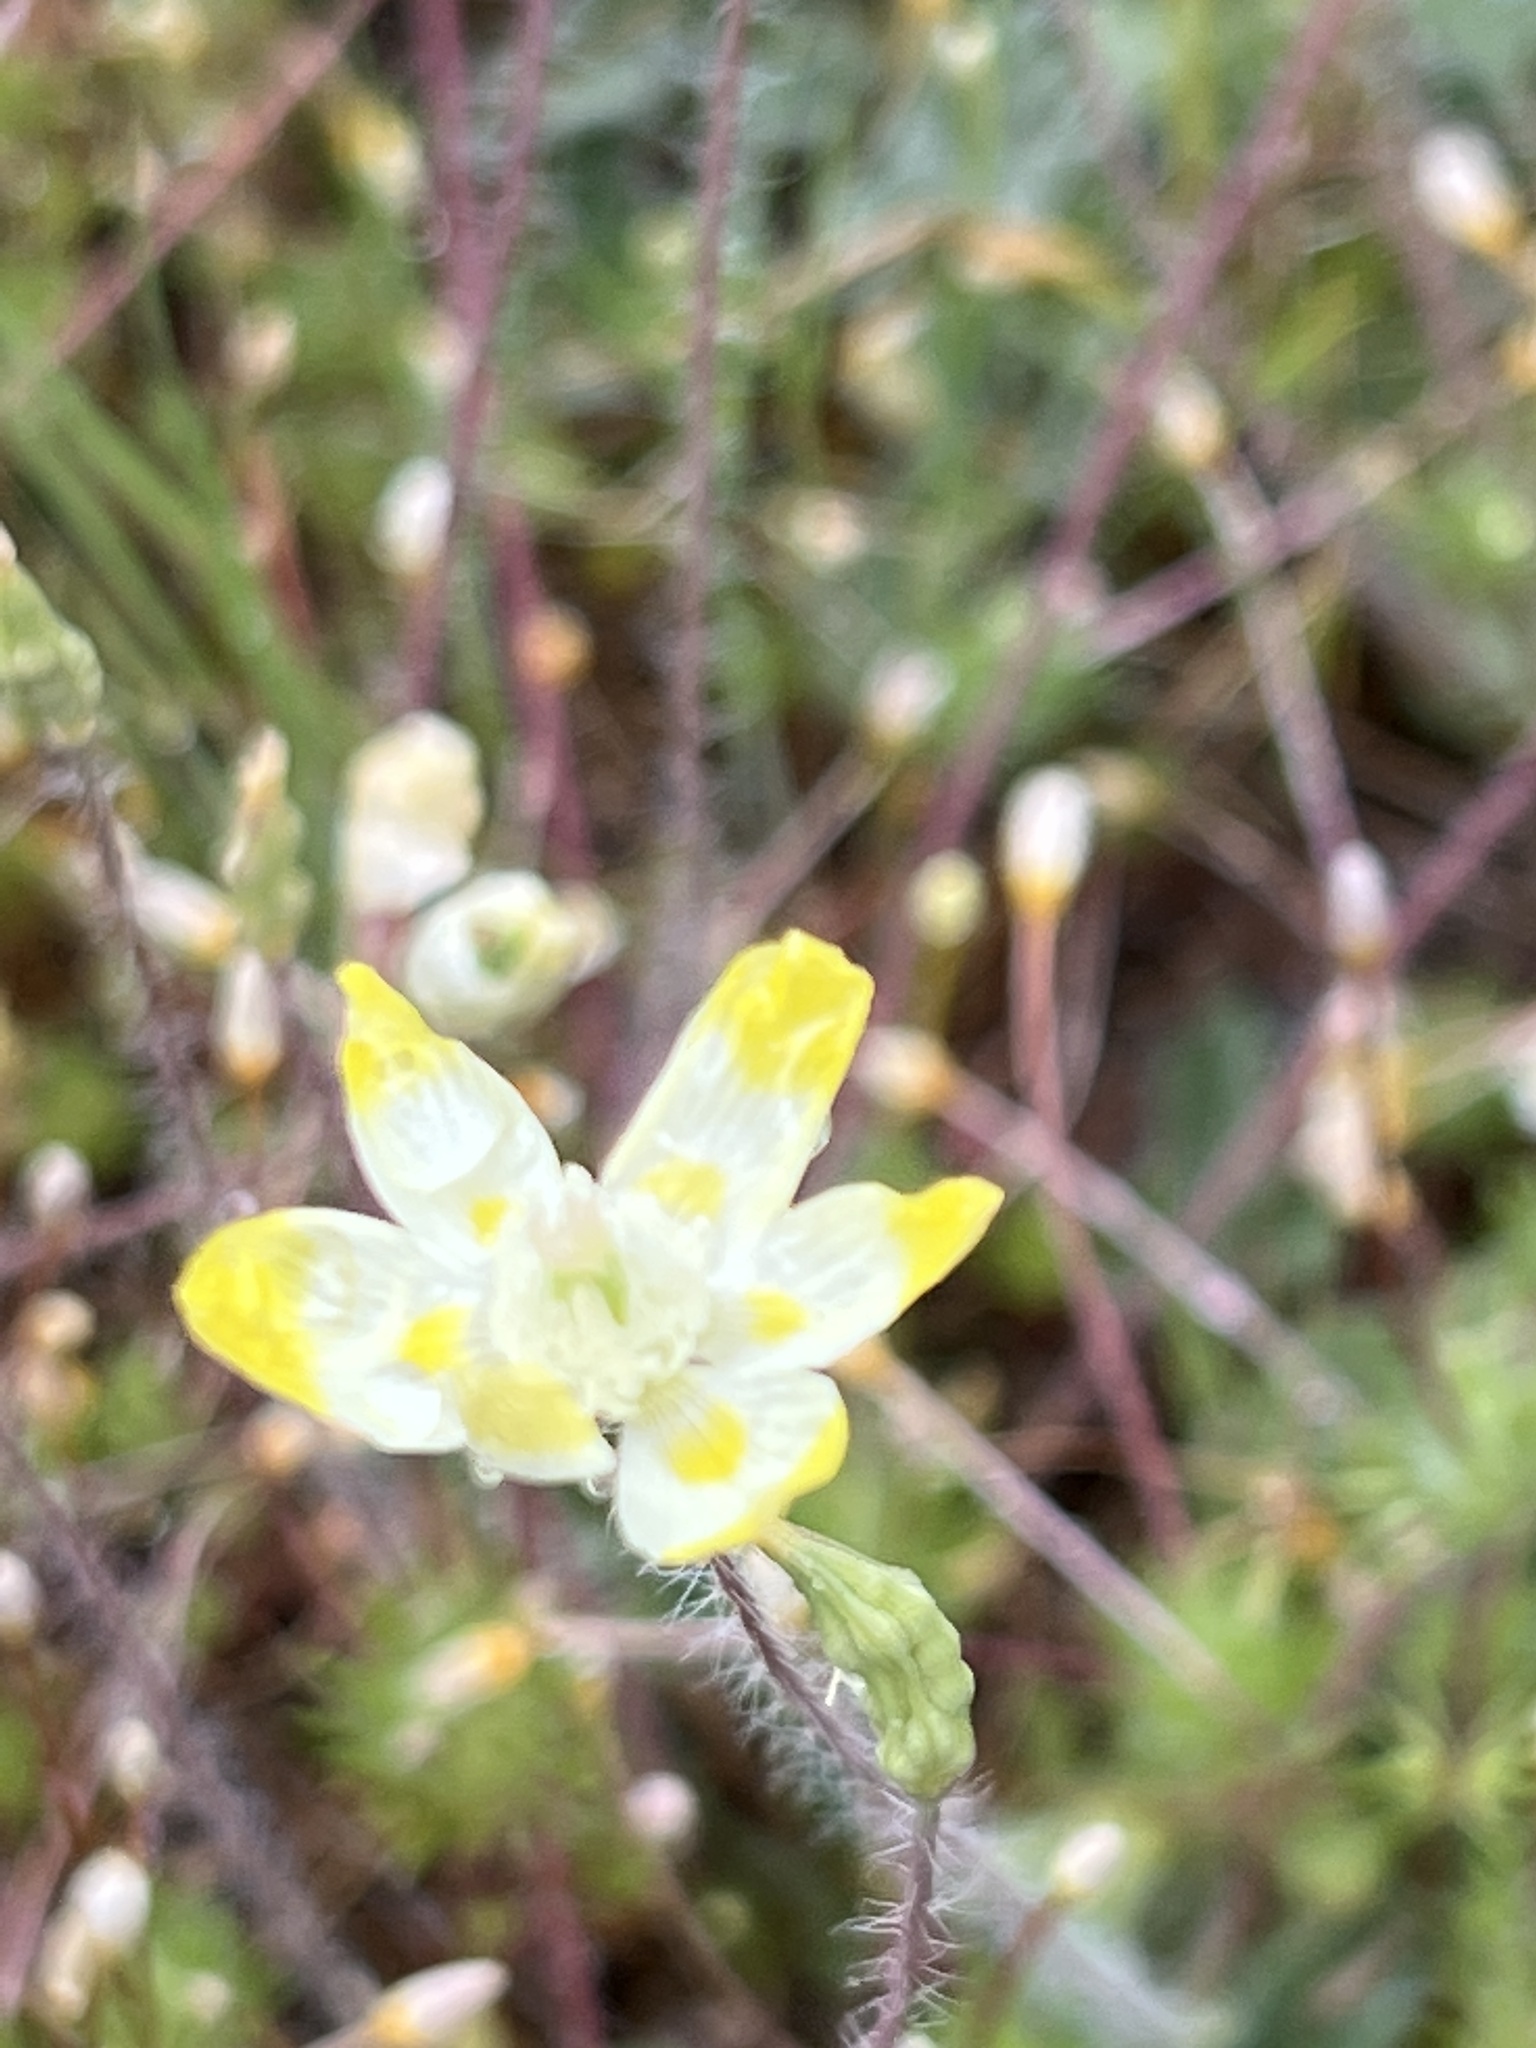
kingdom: Plantae
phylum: Tracheophyta
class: Magnoliopsida
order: Ranunculales
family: Papaveraceae
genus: Platystemon
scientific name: Platystemon californicus
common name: Cream-cups
